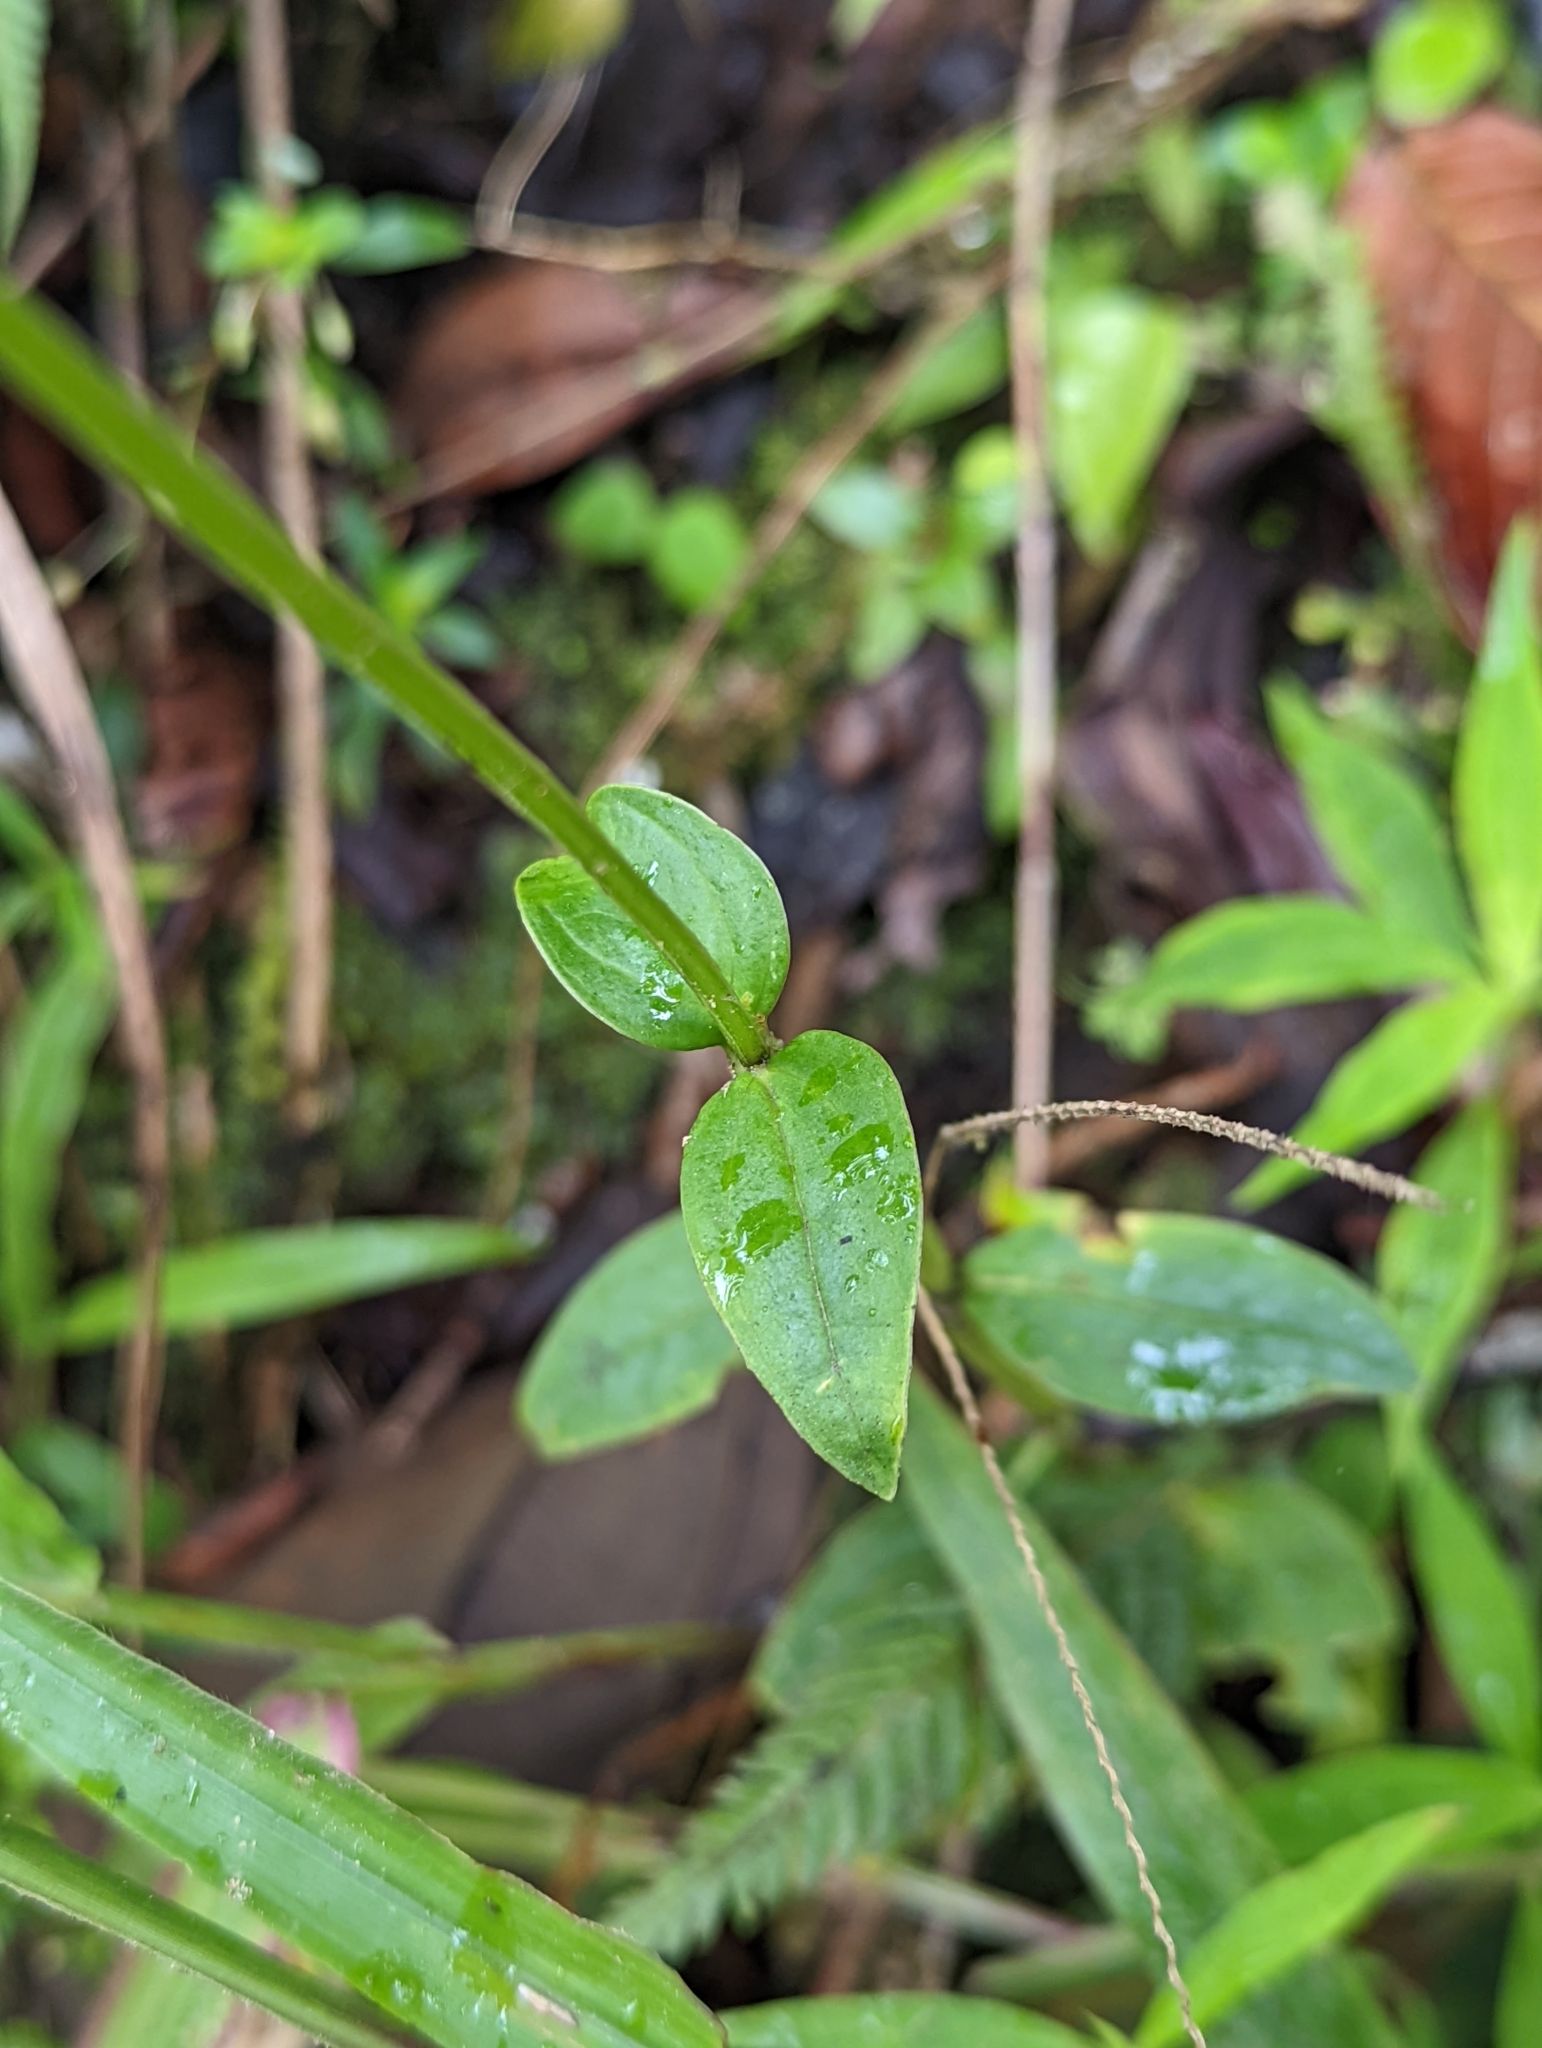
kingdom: Plantae
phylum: Tracheophyta
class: Magnoliopsida
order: Gentianales
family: Gentianaceae
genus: Chelonanthus
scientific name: Chelonanthus alatus
